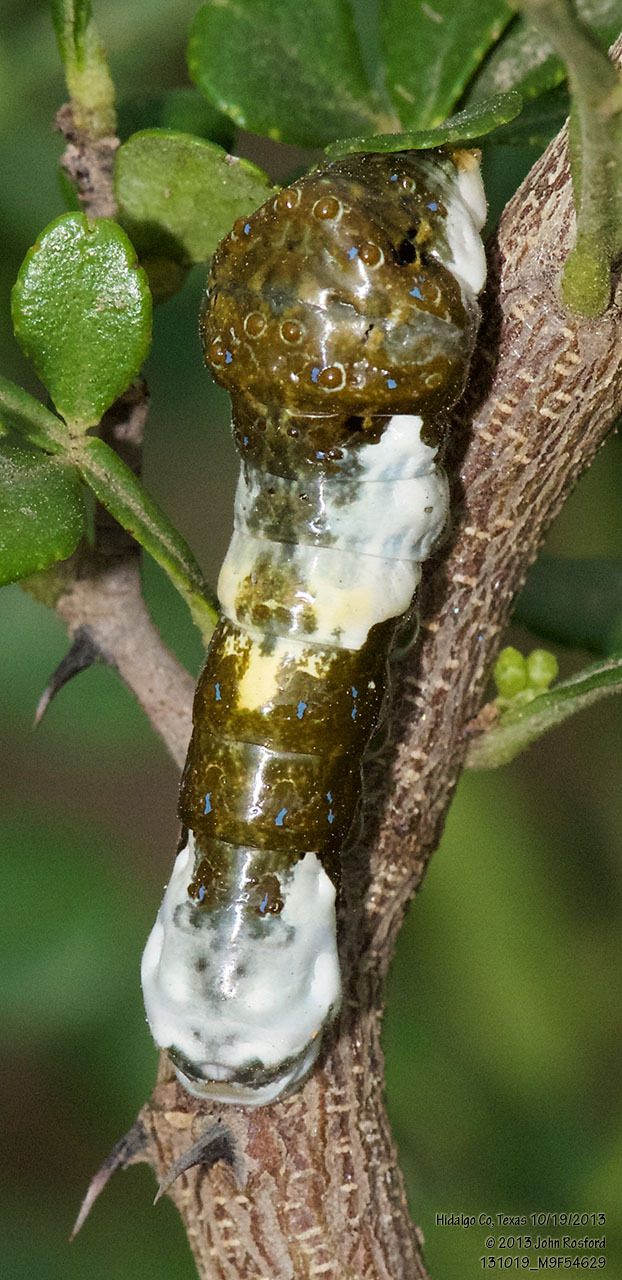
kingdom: Animalia
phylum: Arthropoda
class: Insecta
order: Lepidoptera
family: Papilionidae
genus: Papilio
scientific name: Papilio rumiko
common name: Western giant swallowtail
